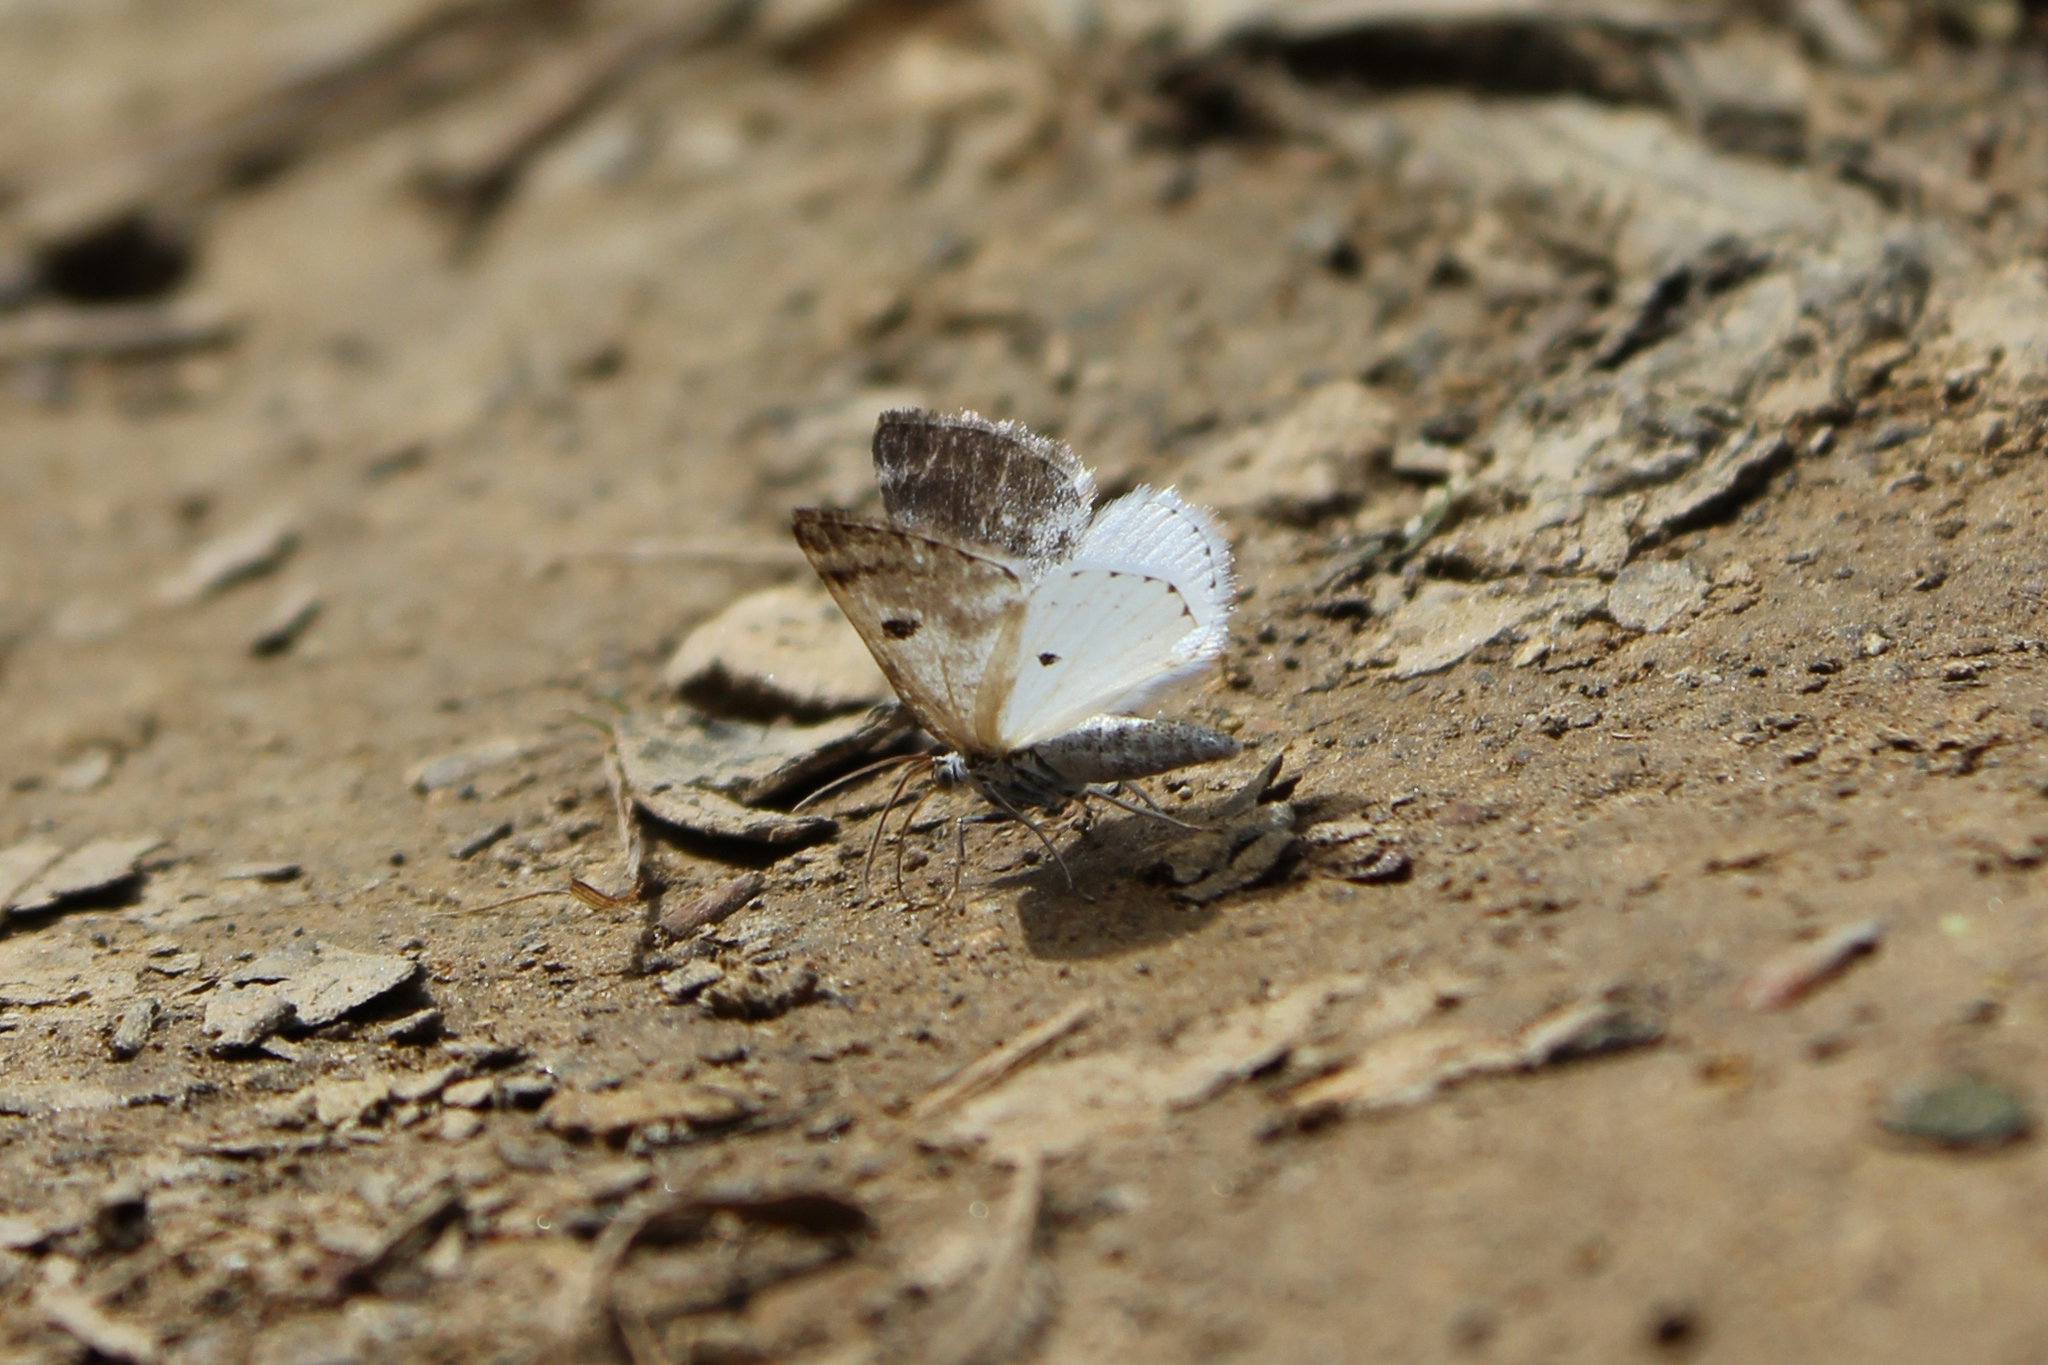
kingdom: Animalia
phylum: Arthropoda
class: Insecta
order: Lepidoptera
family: Geometridae
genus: Lomographa
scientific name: Lomographa semiclarata
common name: Bluish spring moth
